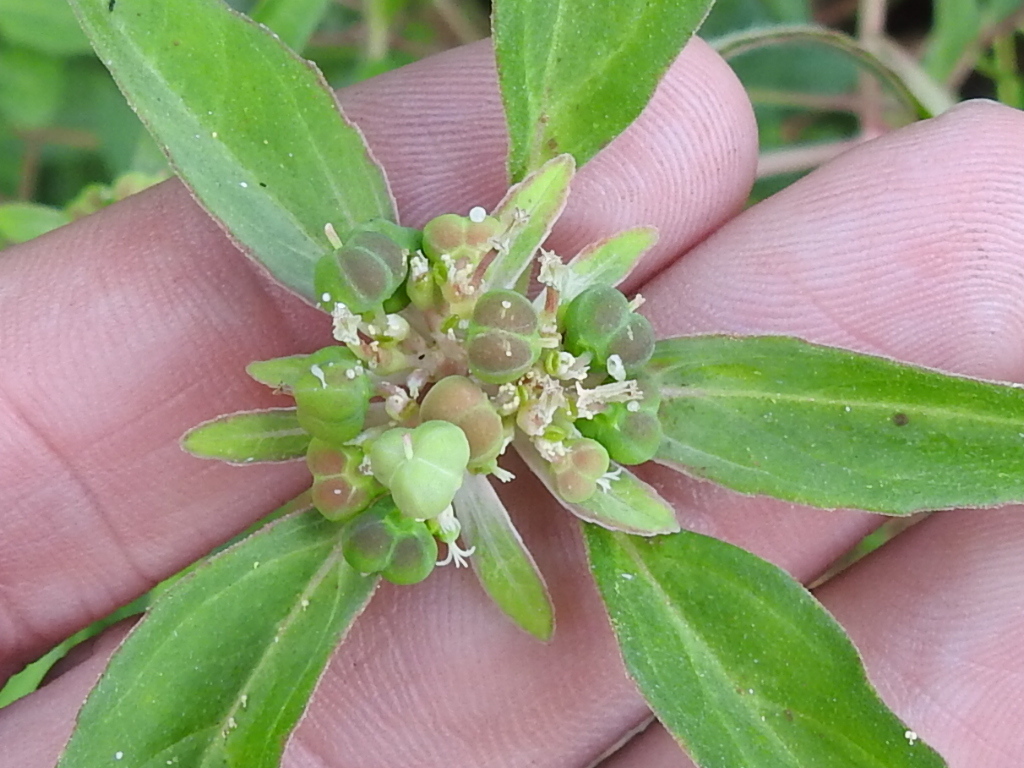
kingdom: Plantae
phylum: Tracheophyta
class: Magnoliopsida
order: Malpighiales
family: Euphorbiaceae
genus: Euphorbia
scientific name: Euphorbia dentata
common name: Dentate spurge
